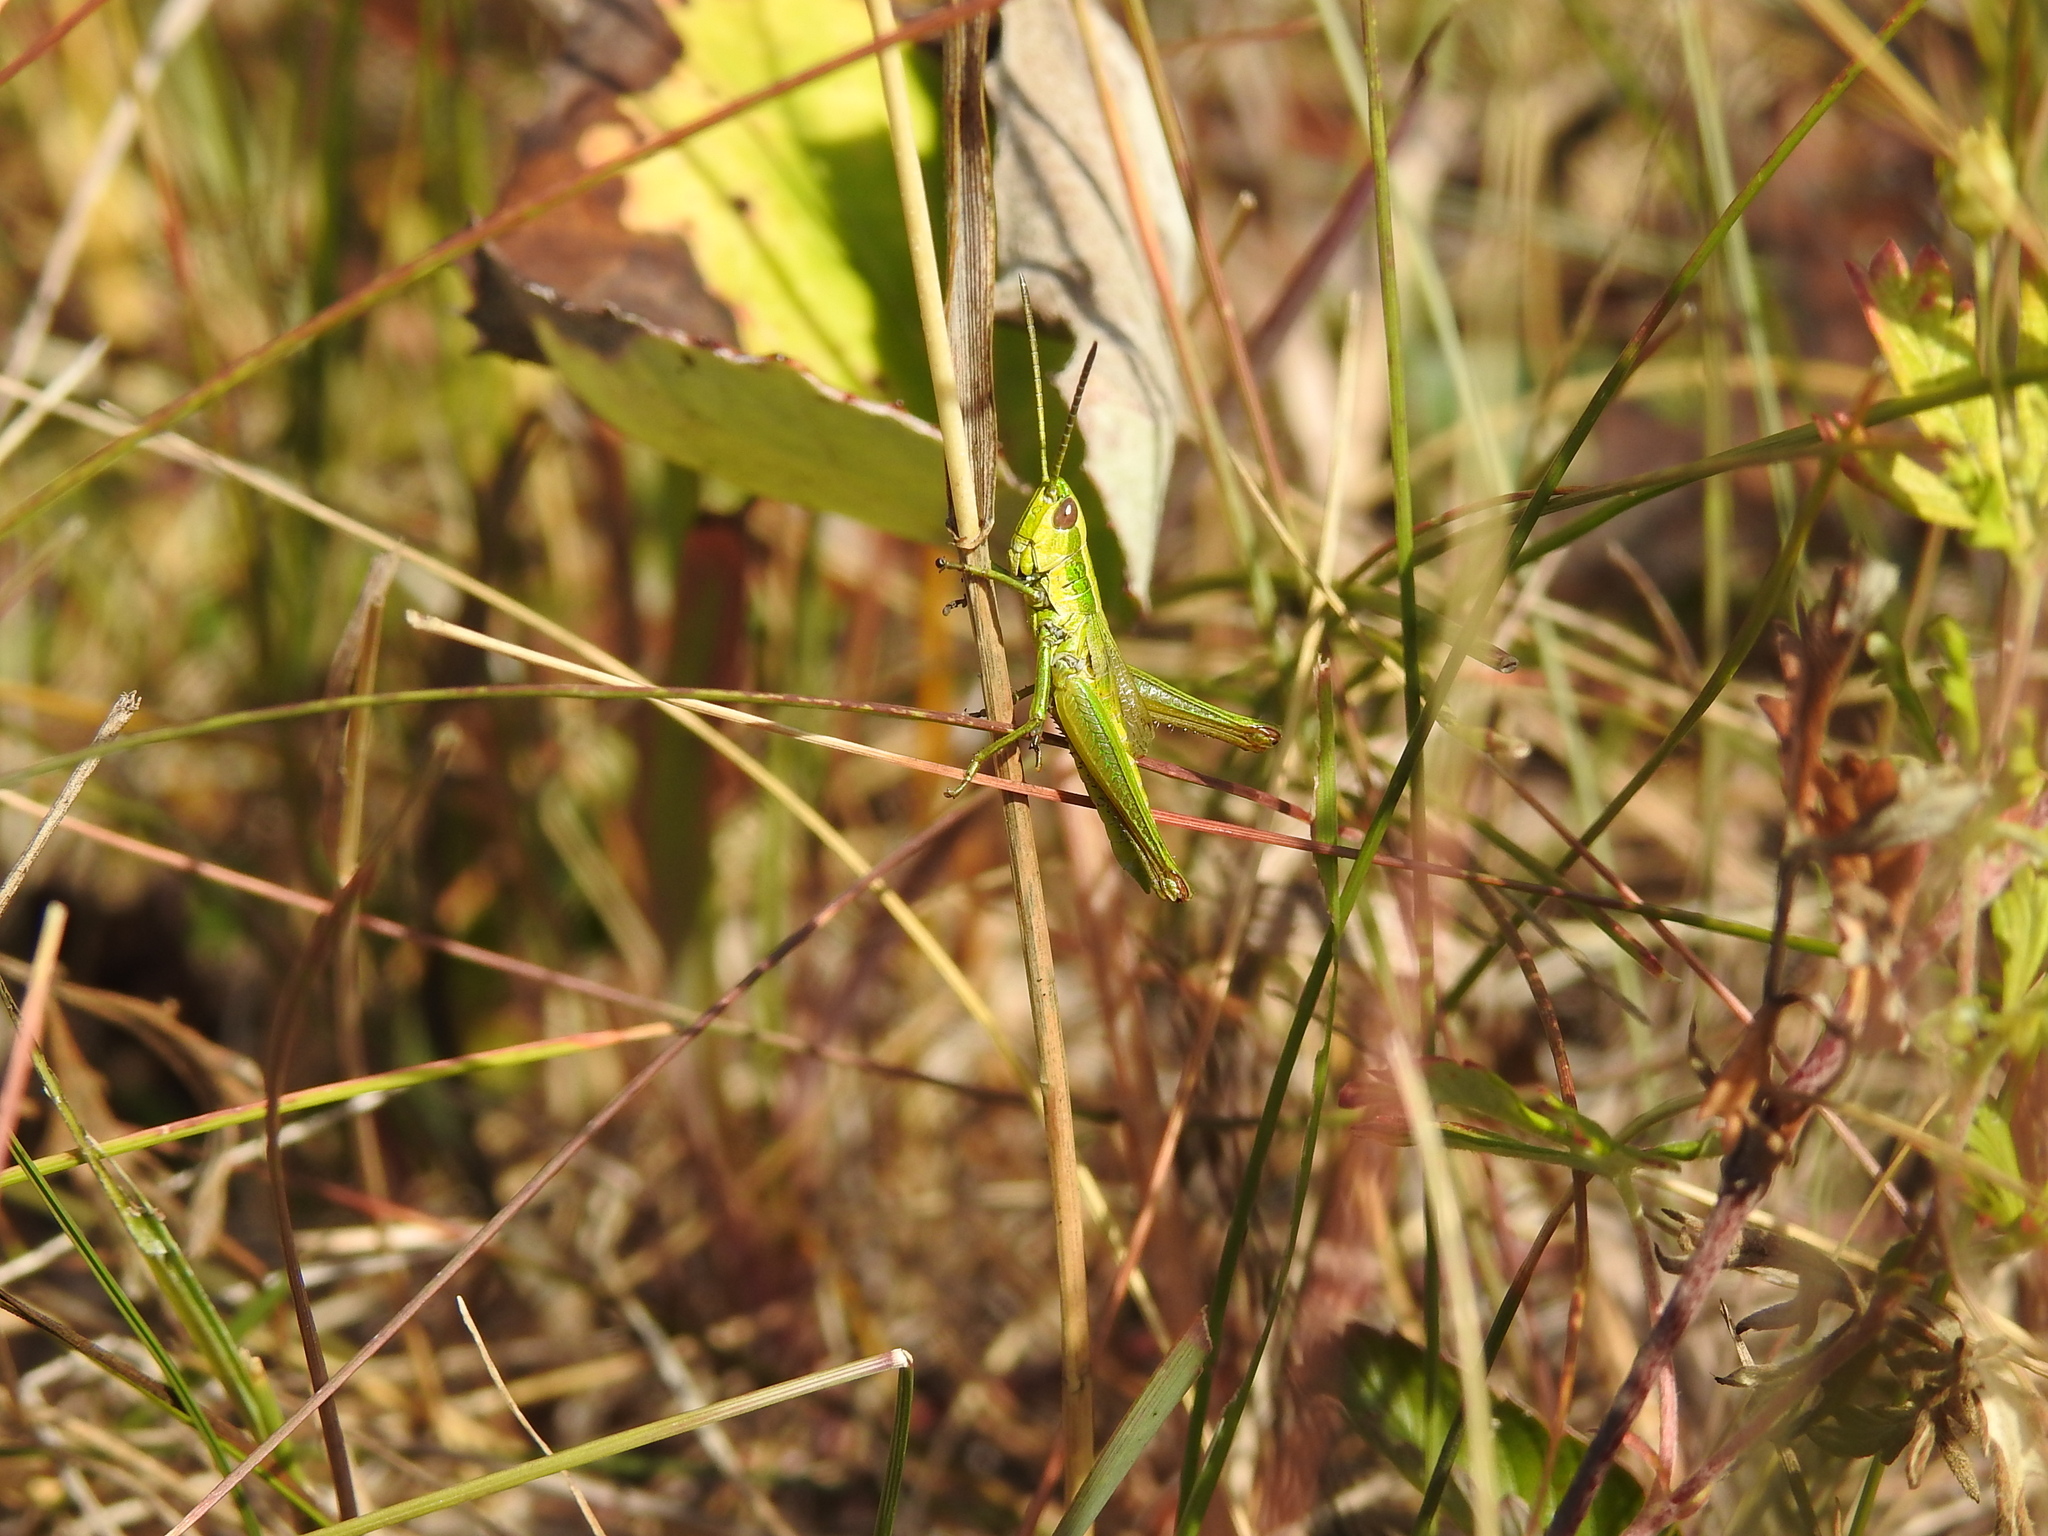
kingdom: Animalia
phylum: Arthropoda
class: Insecta
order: Orthoptera
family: Acrididae
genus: Euthystira
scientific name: Euthystira brachyptera
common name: Small gold grasshopper
